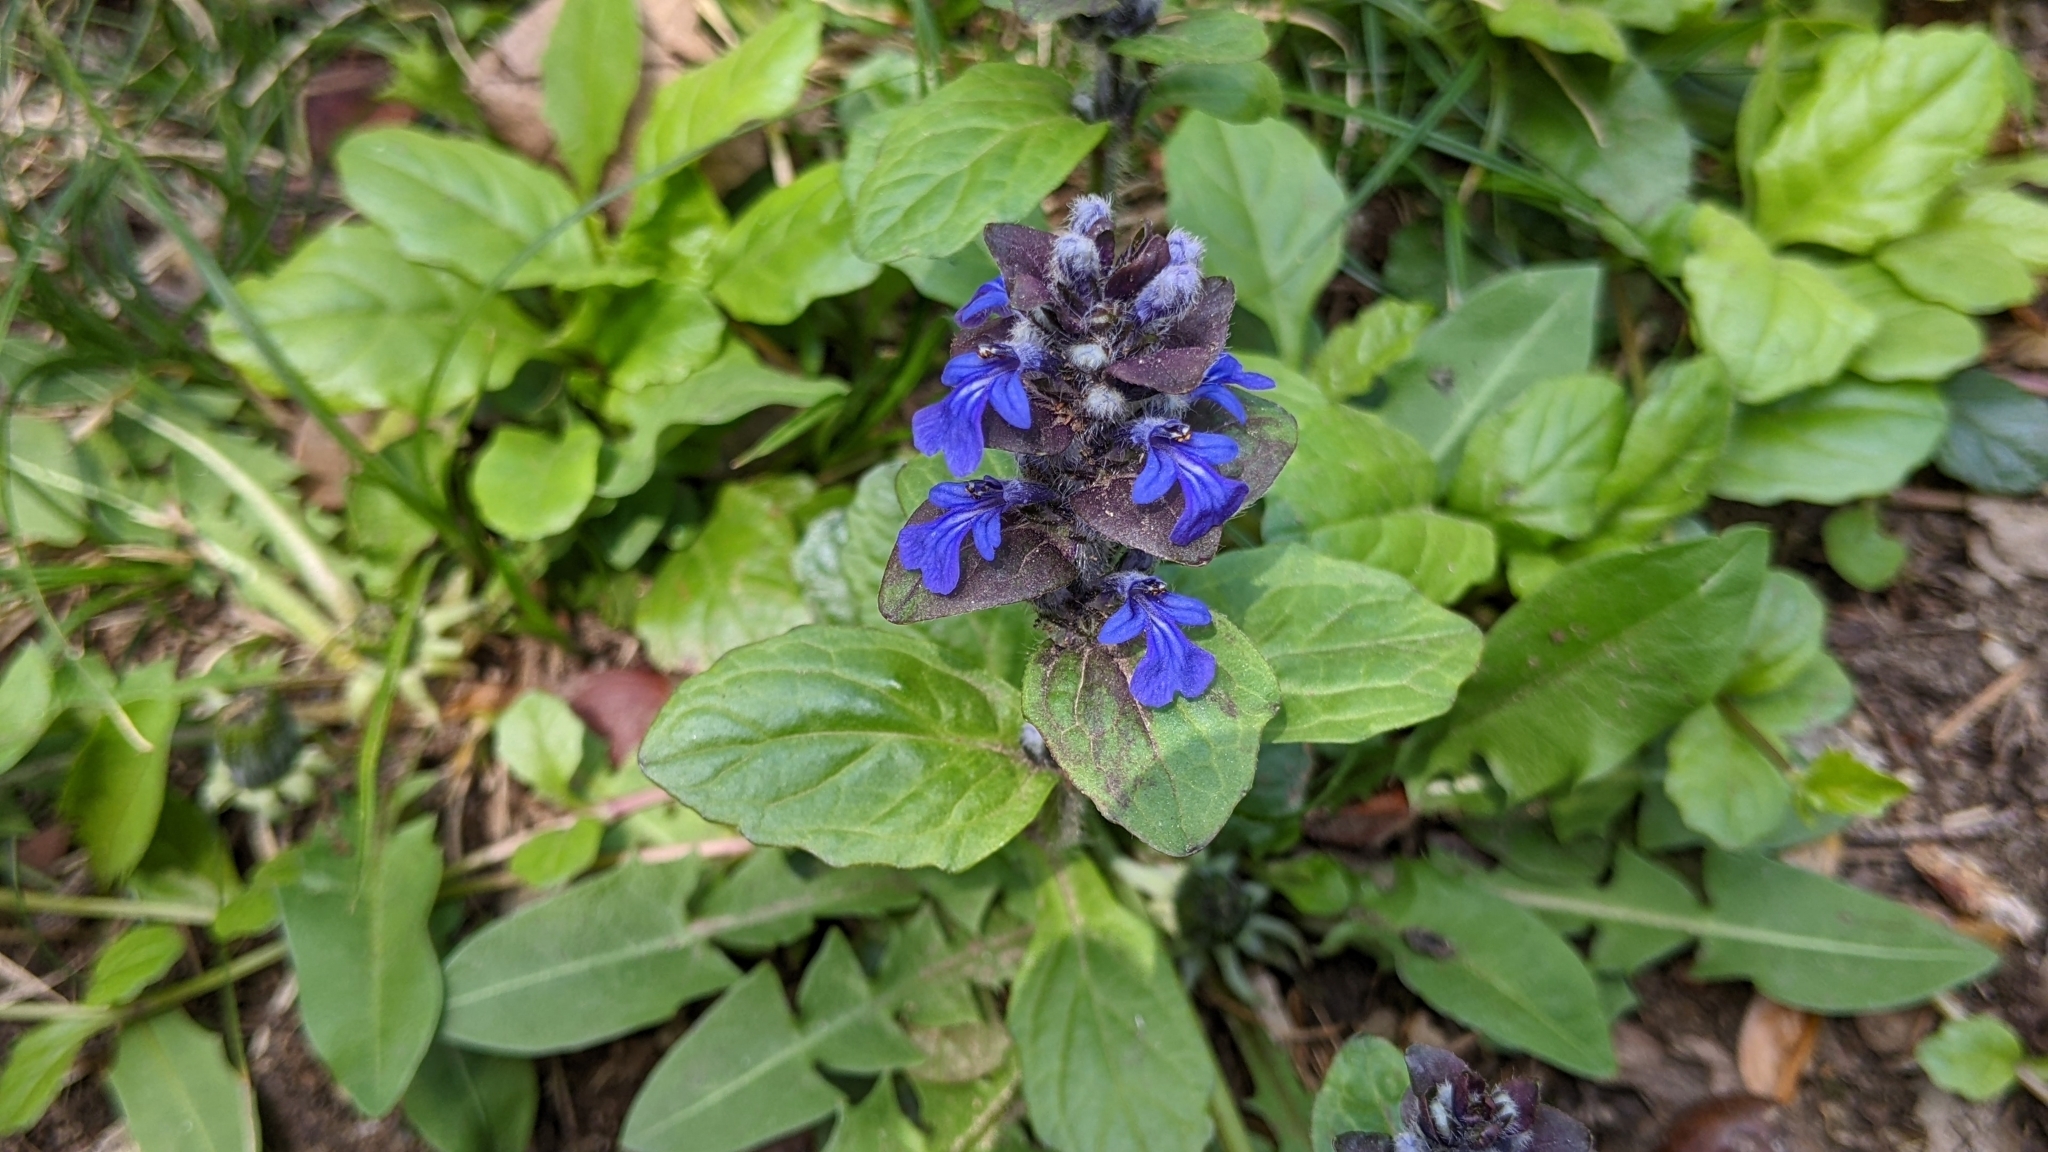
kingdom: Plantae
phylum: Tracheophyta
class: Magnoliopsida
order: Lamiales
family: Lamiaceae
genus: Ajuga
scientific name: Ajuga reptans
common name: Bugle
